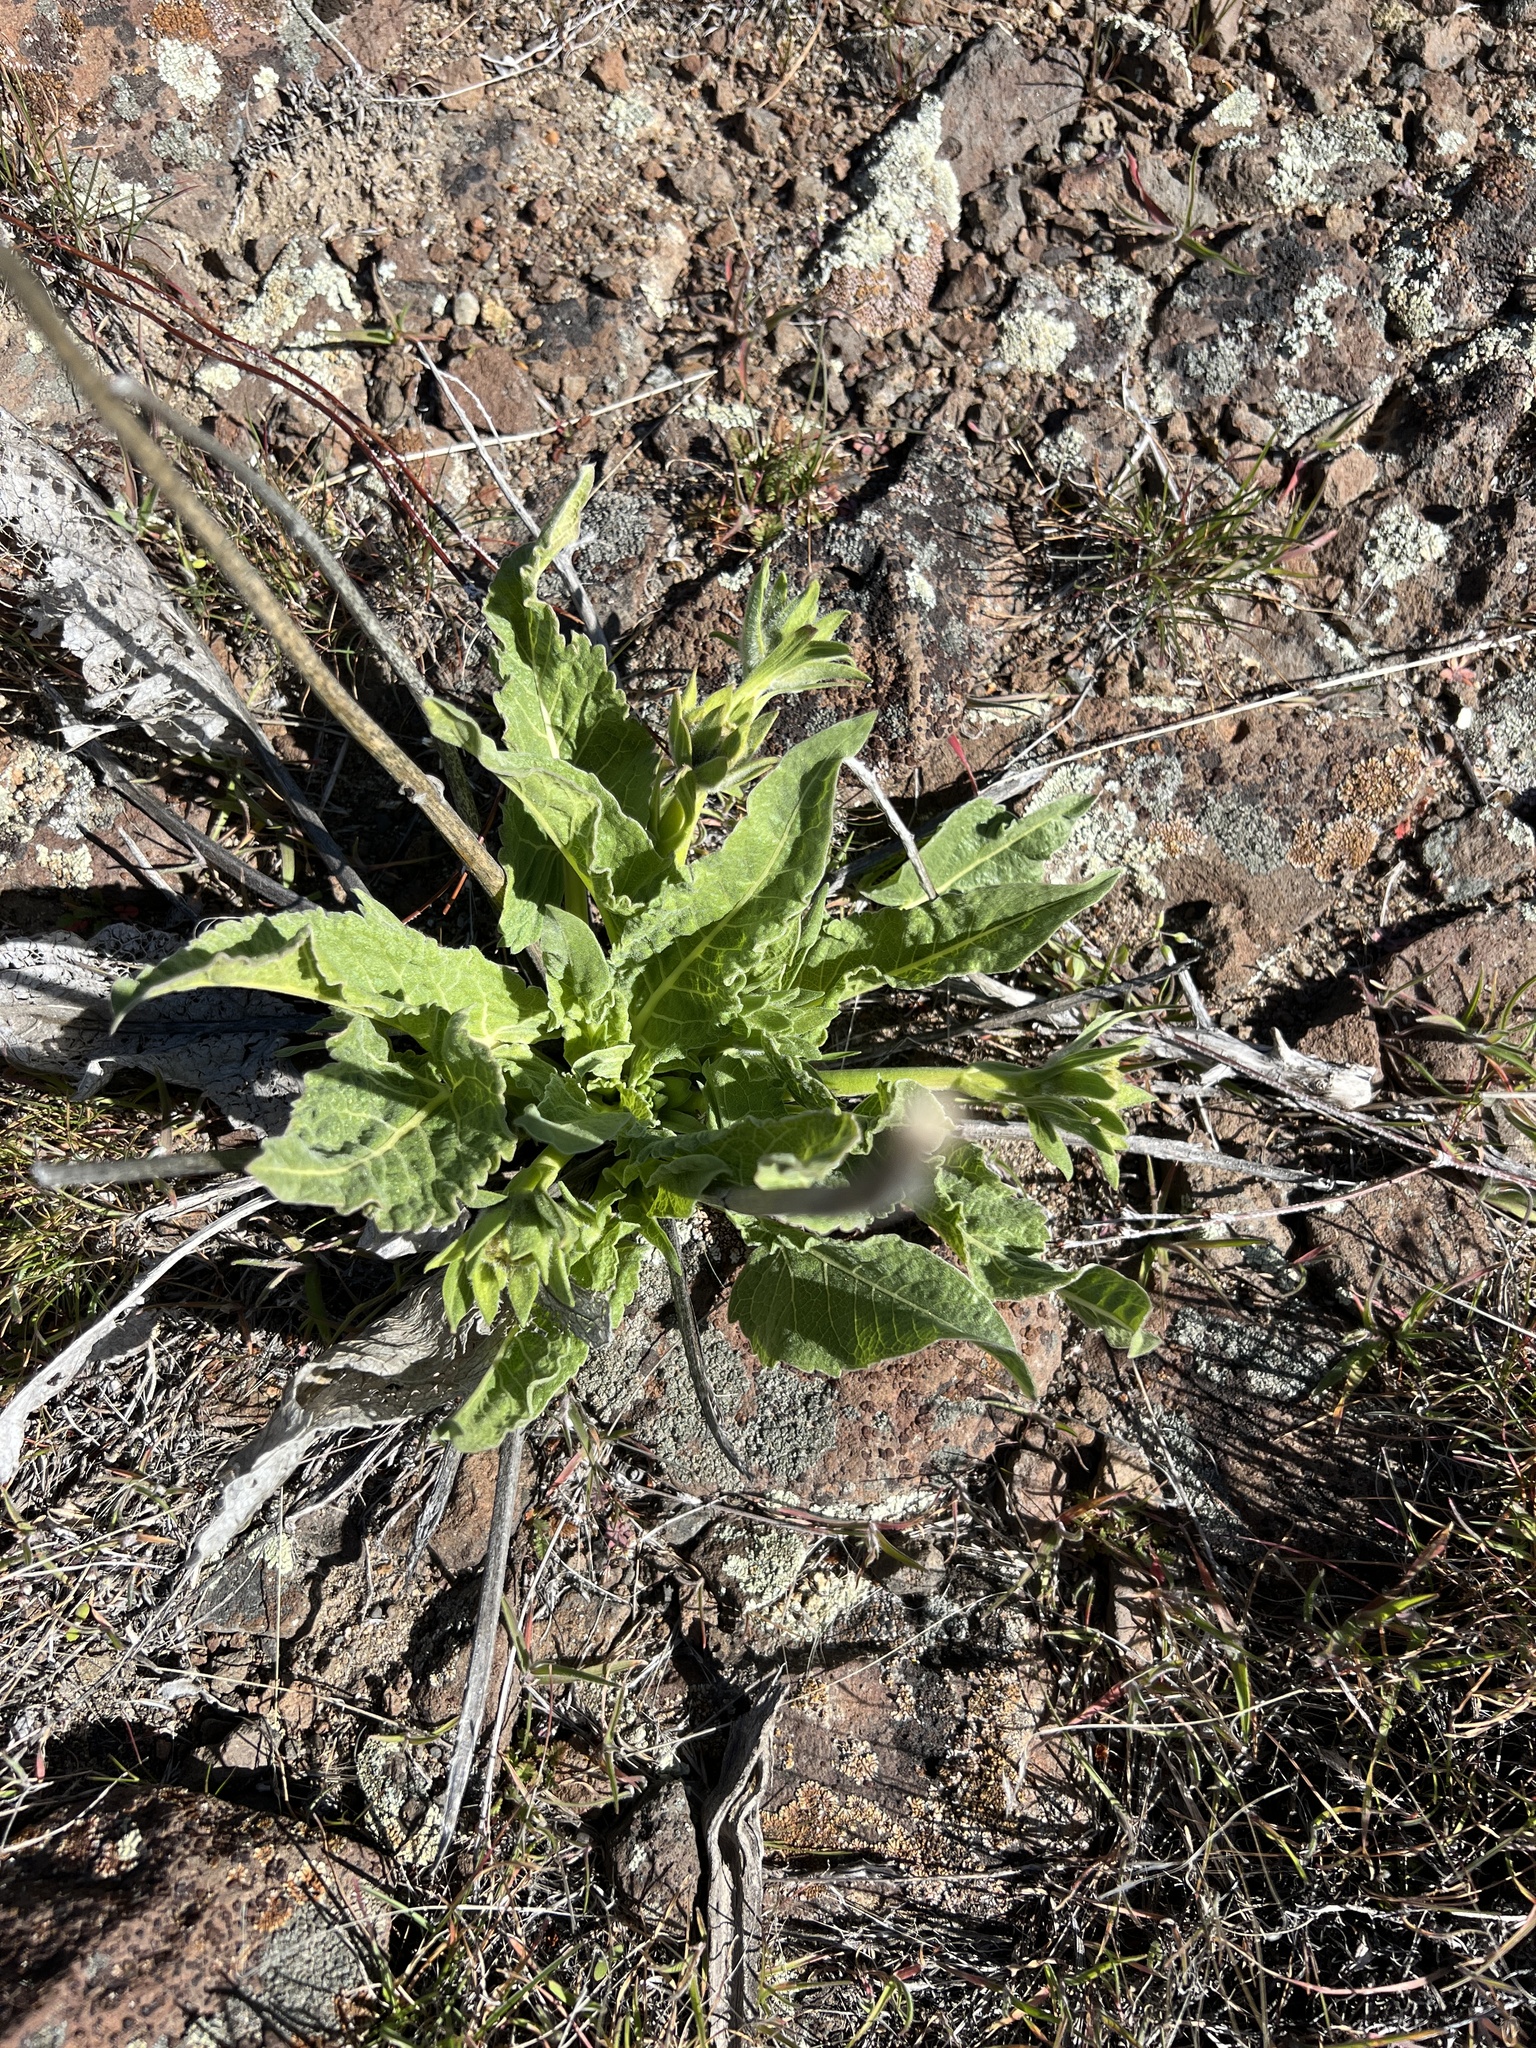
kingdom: Plantae
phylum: Tracheophyta
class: Magnoliopsida
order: Asterales
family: Asteraceae
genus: Balsamorhiza
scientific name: Balsamorhiza careyana
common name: Carey's balsamroot
